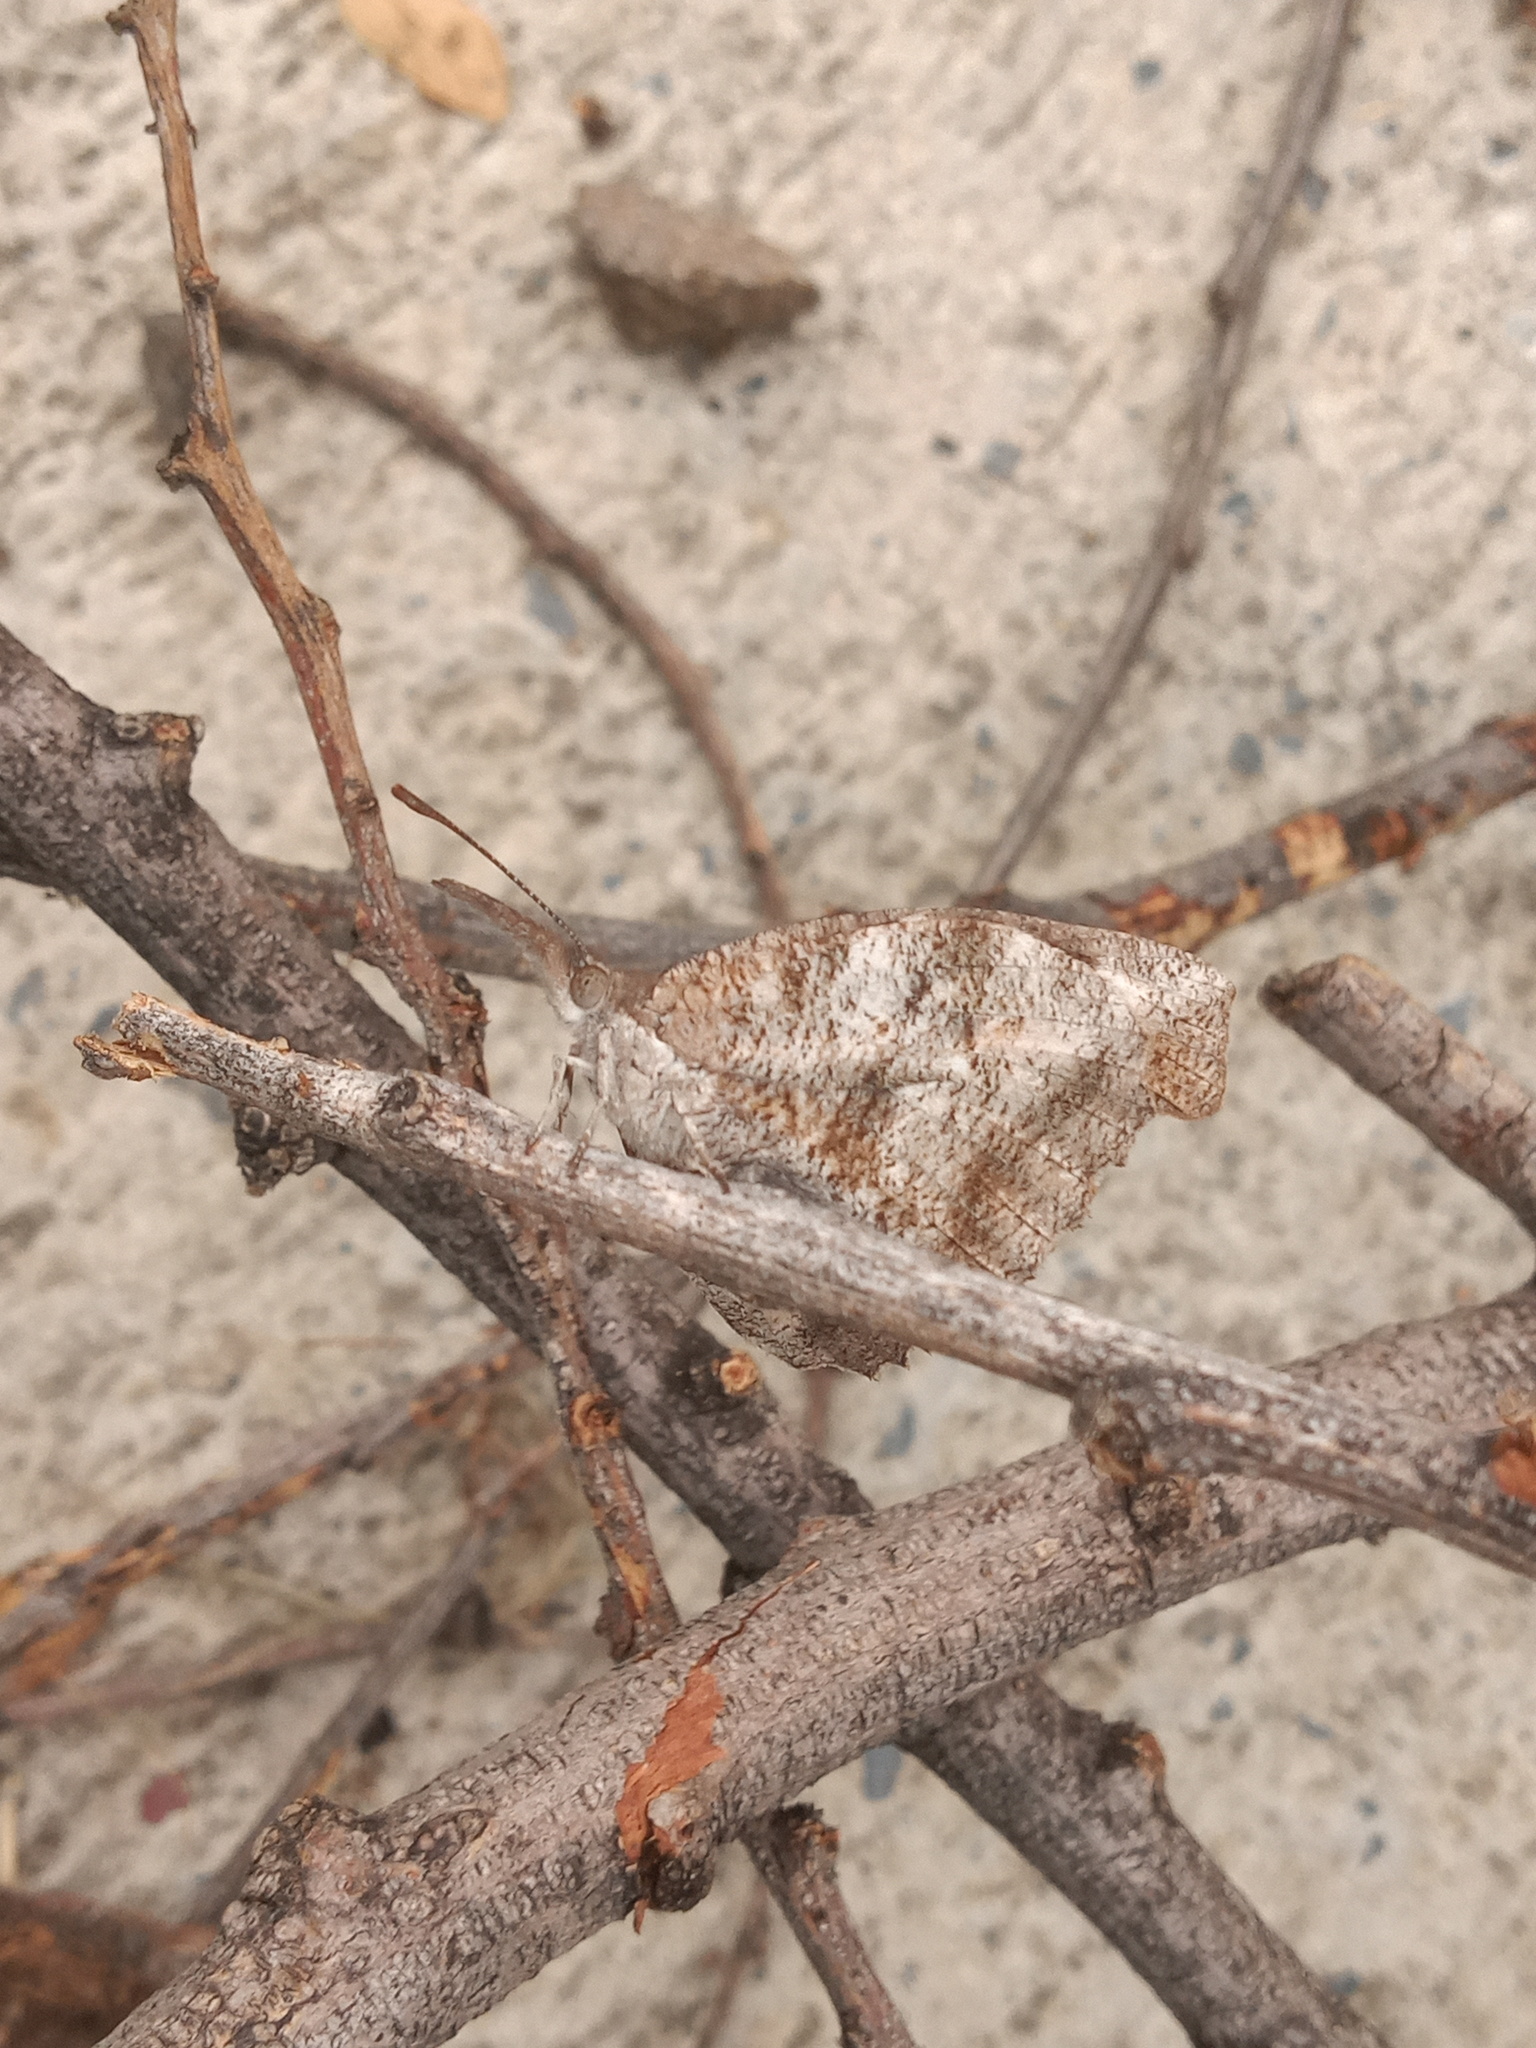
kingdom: Animalia
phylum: Arthropoda
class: Insecta
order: Lepidoptera
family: Nymphalidae
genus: Libytheana
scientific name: Libytheana carinenta
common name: American snout
